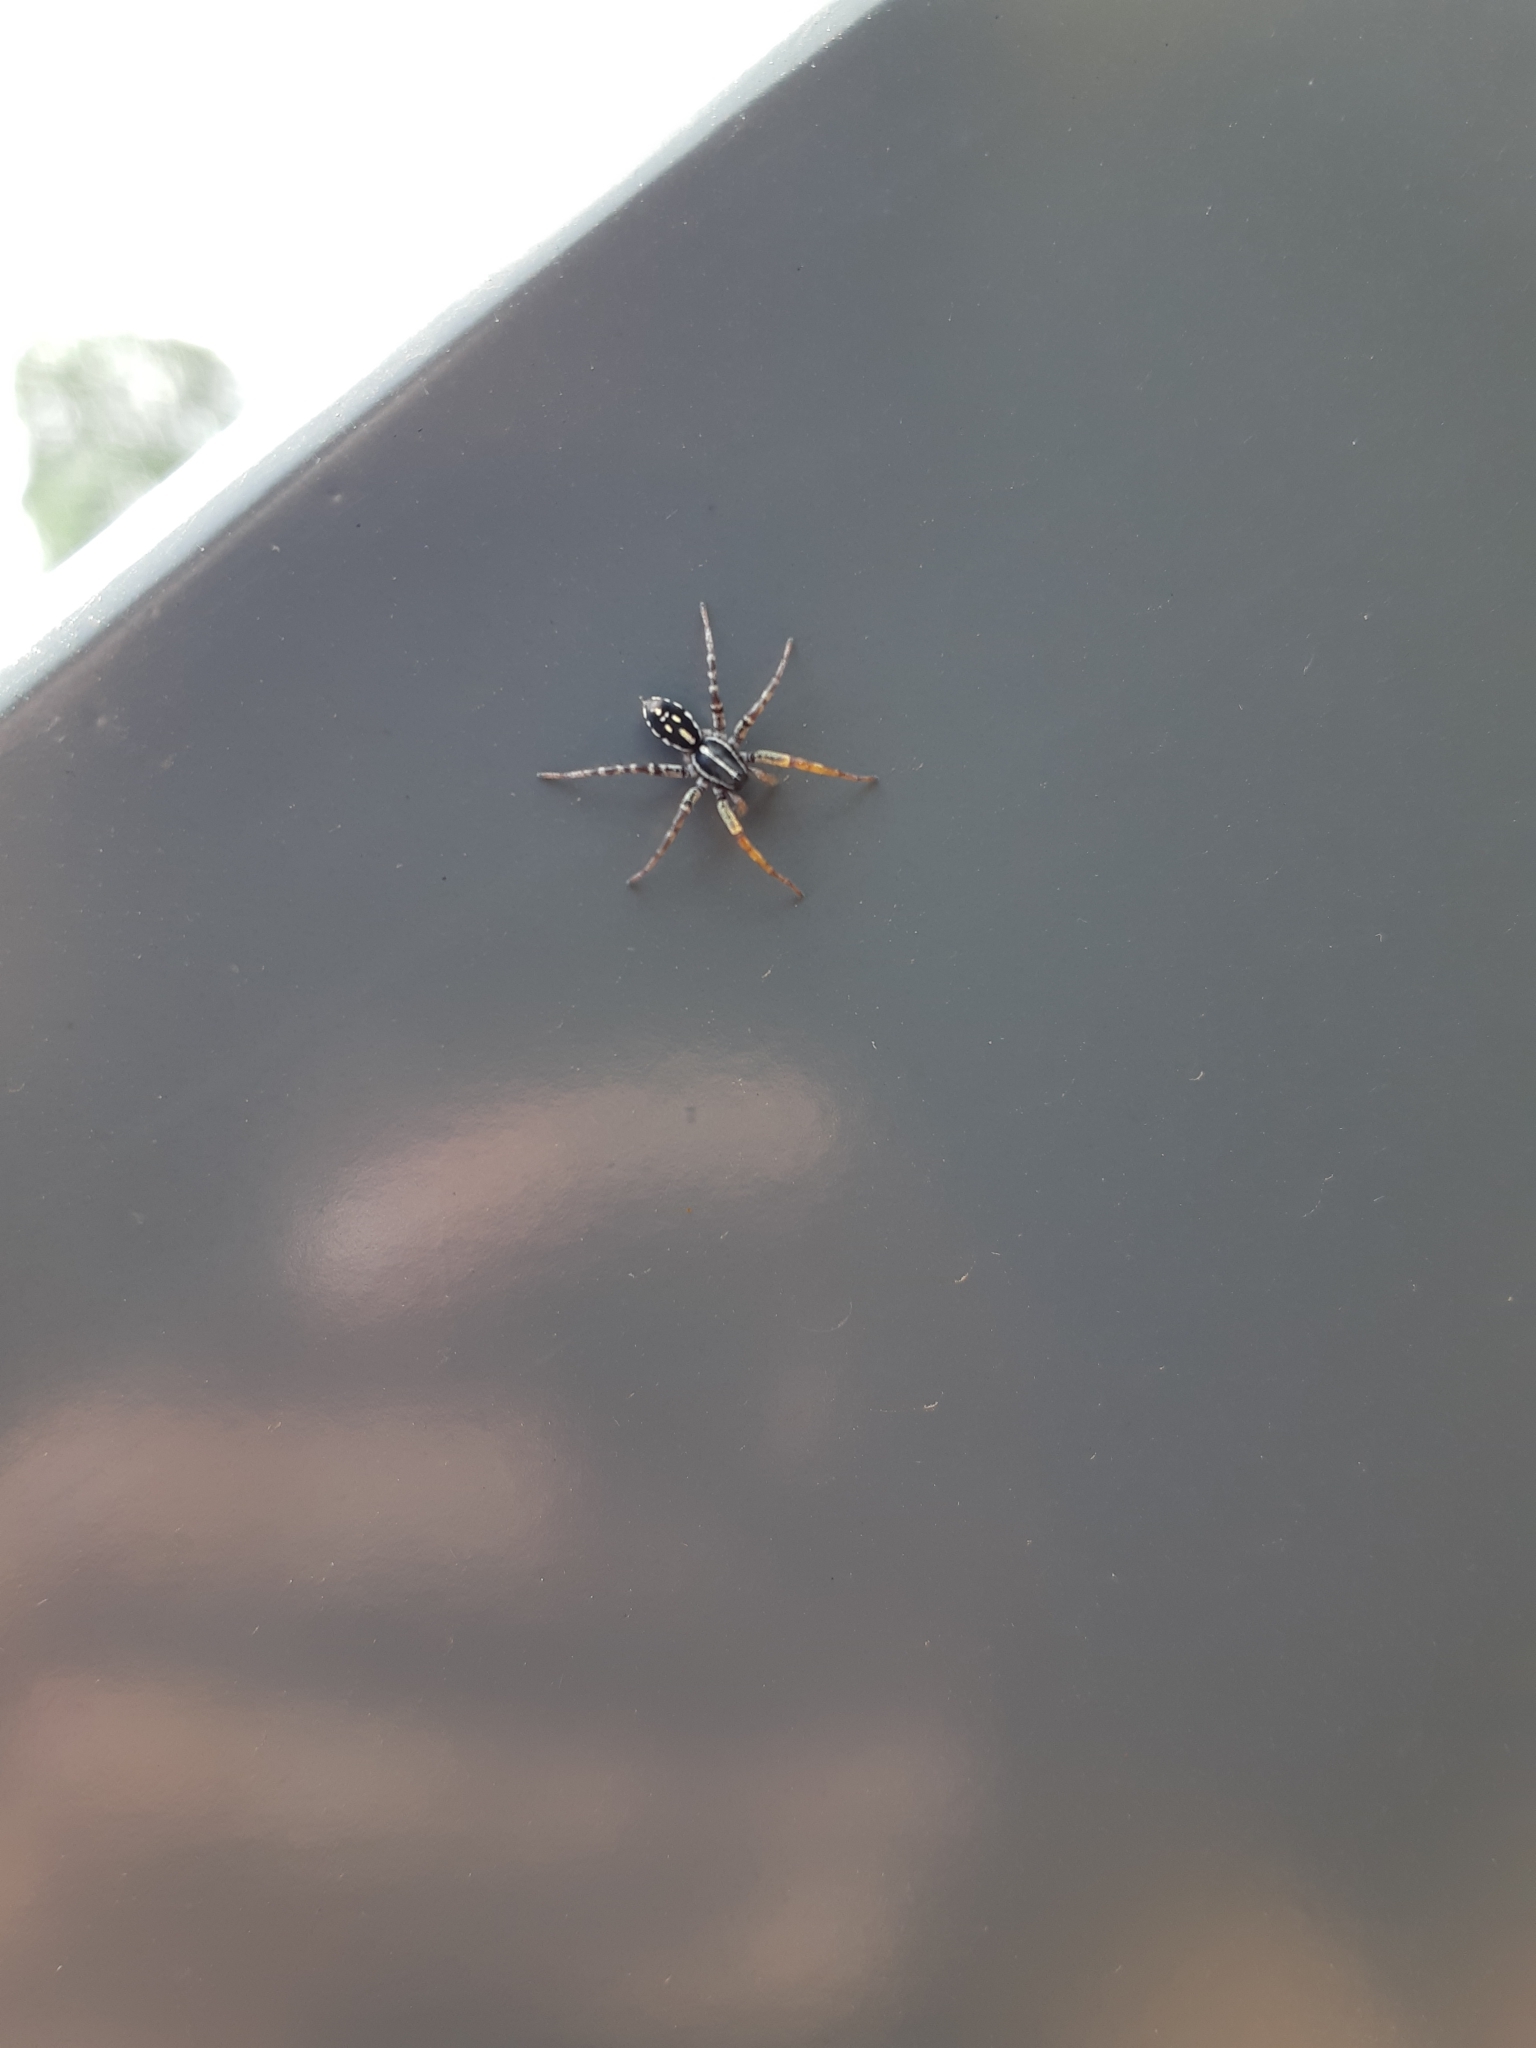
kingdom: Animalia
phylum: Arthropoda
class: Arachnida
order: Araneae
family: Corinnidae
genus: Nyssus
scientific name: Nyssus coloripes
